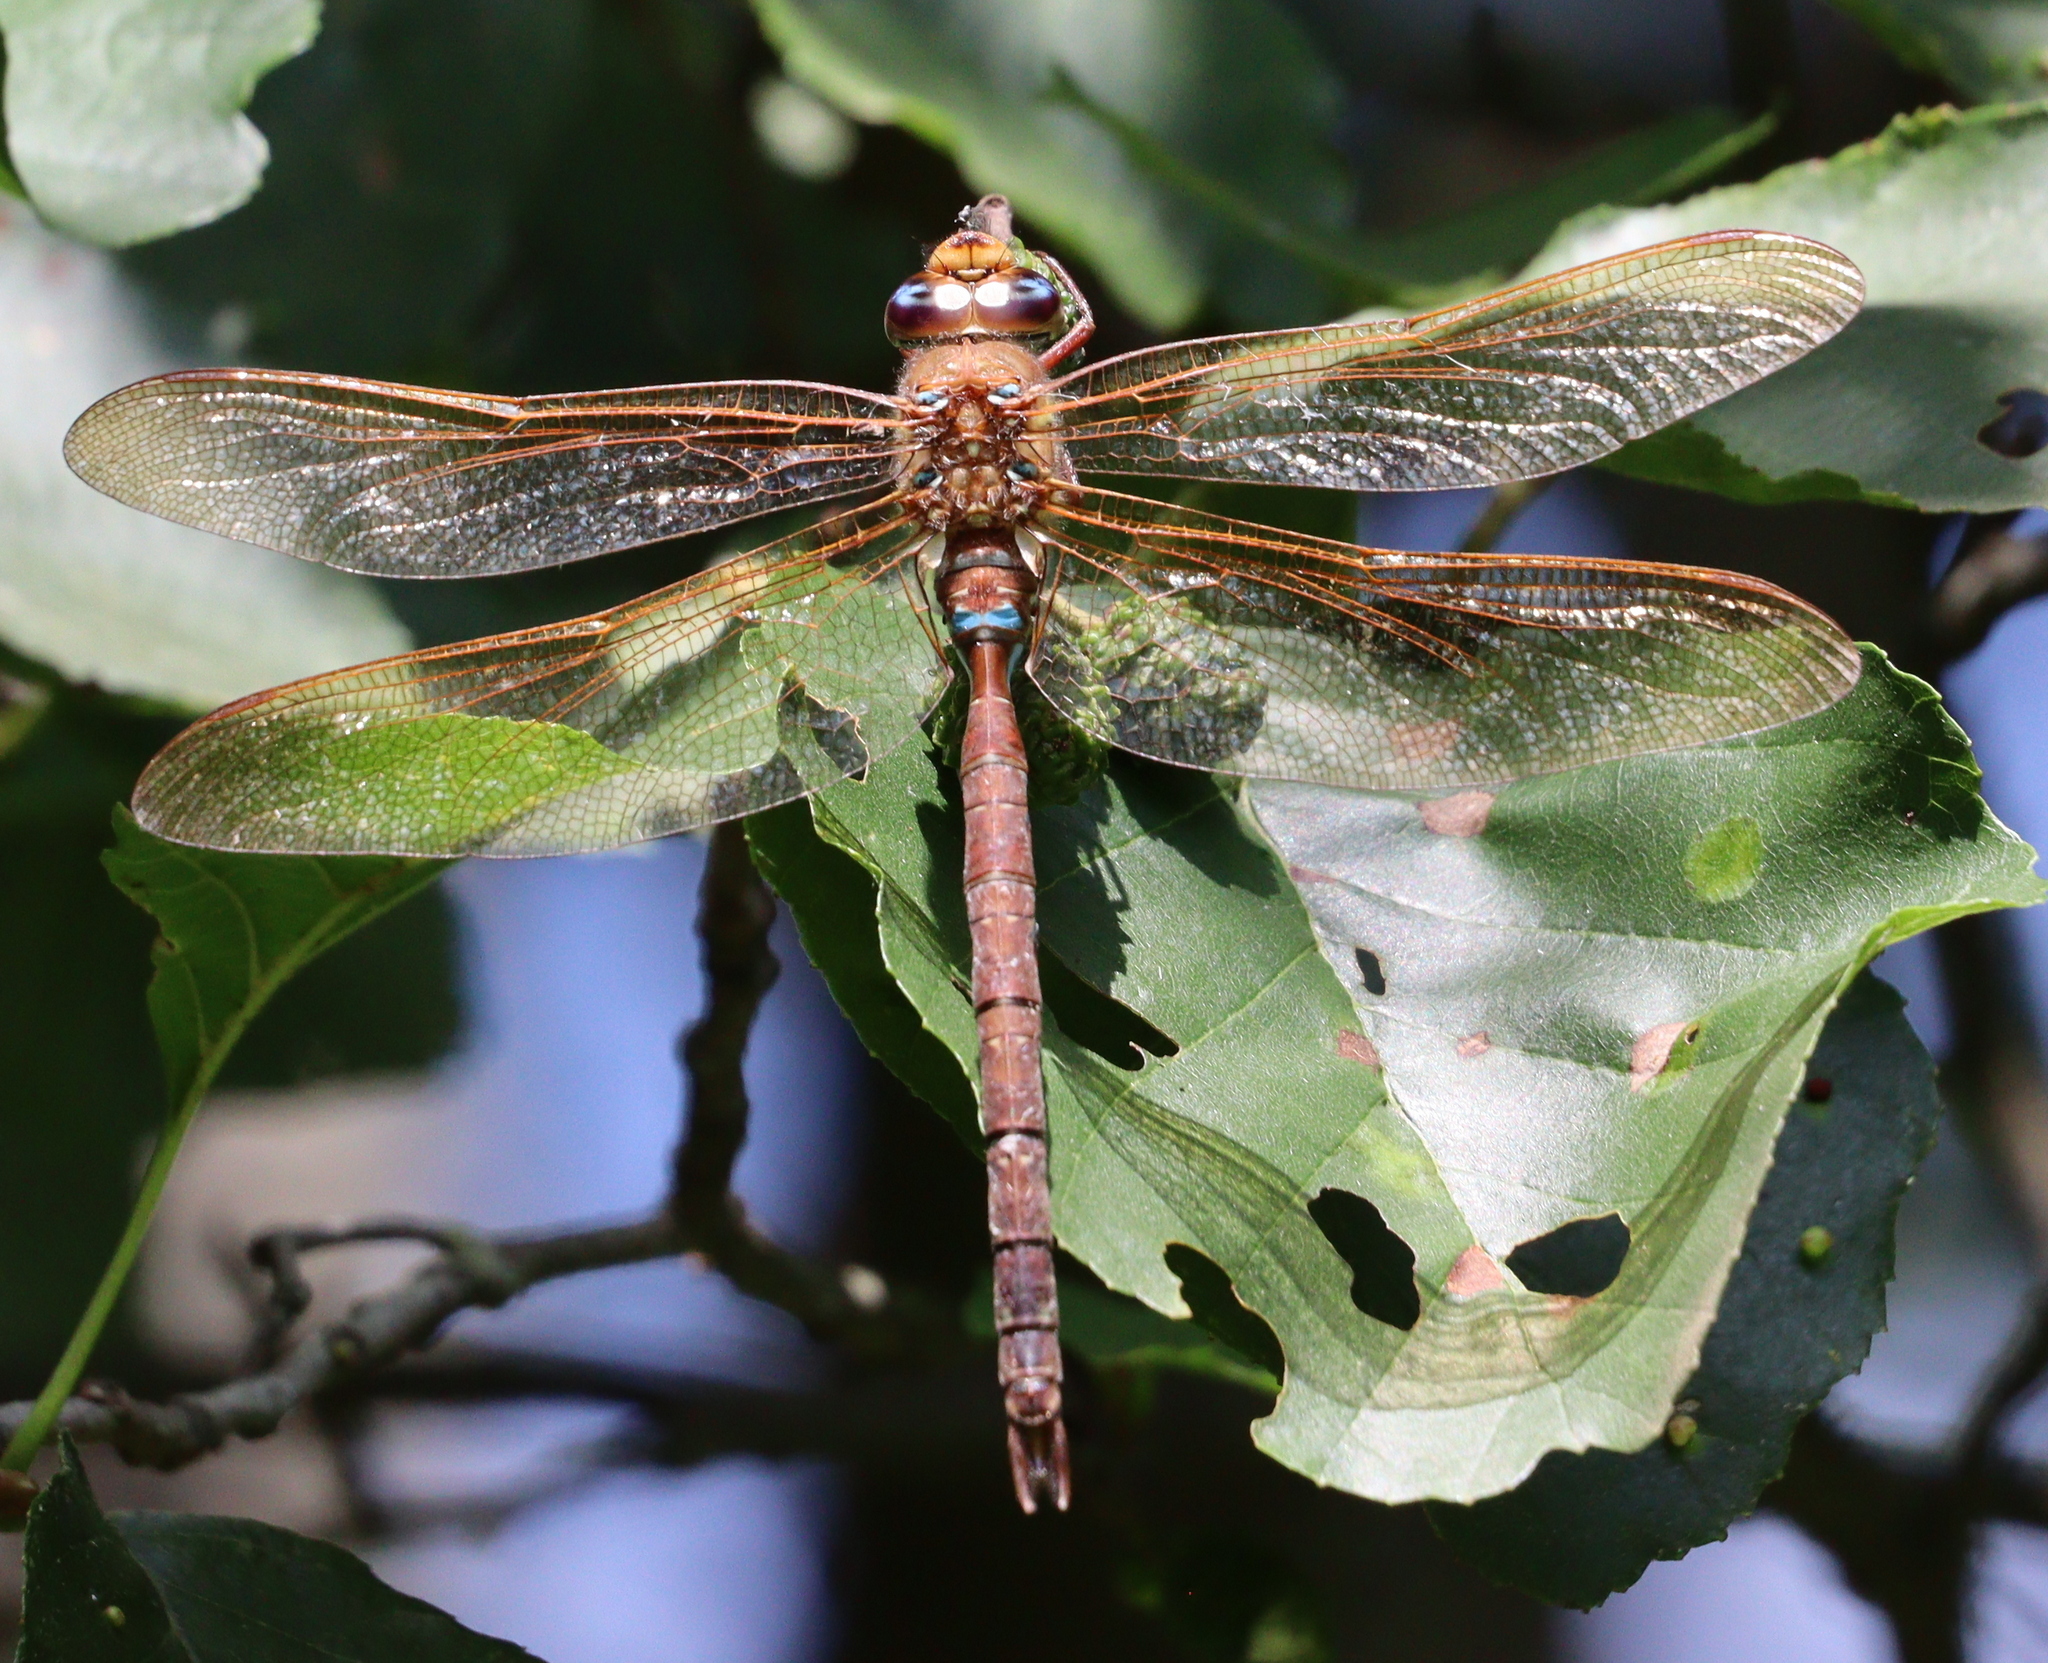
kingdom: Animalia
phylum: Arthropoda
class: Insecta
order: Odonata
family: Aeshnidae
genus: Aeshna
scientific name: Aeshna grandis
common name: Brown hawker
